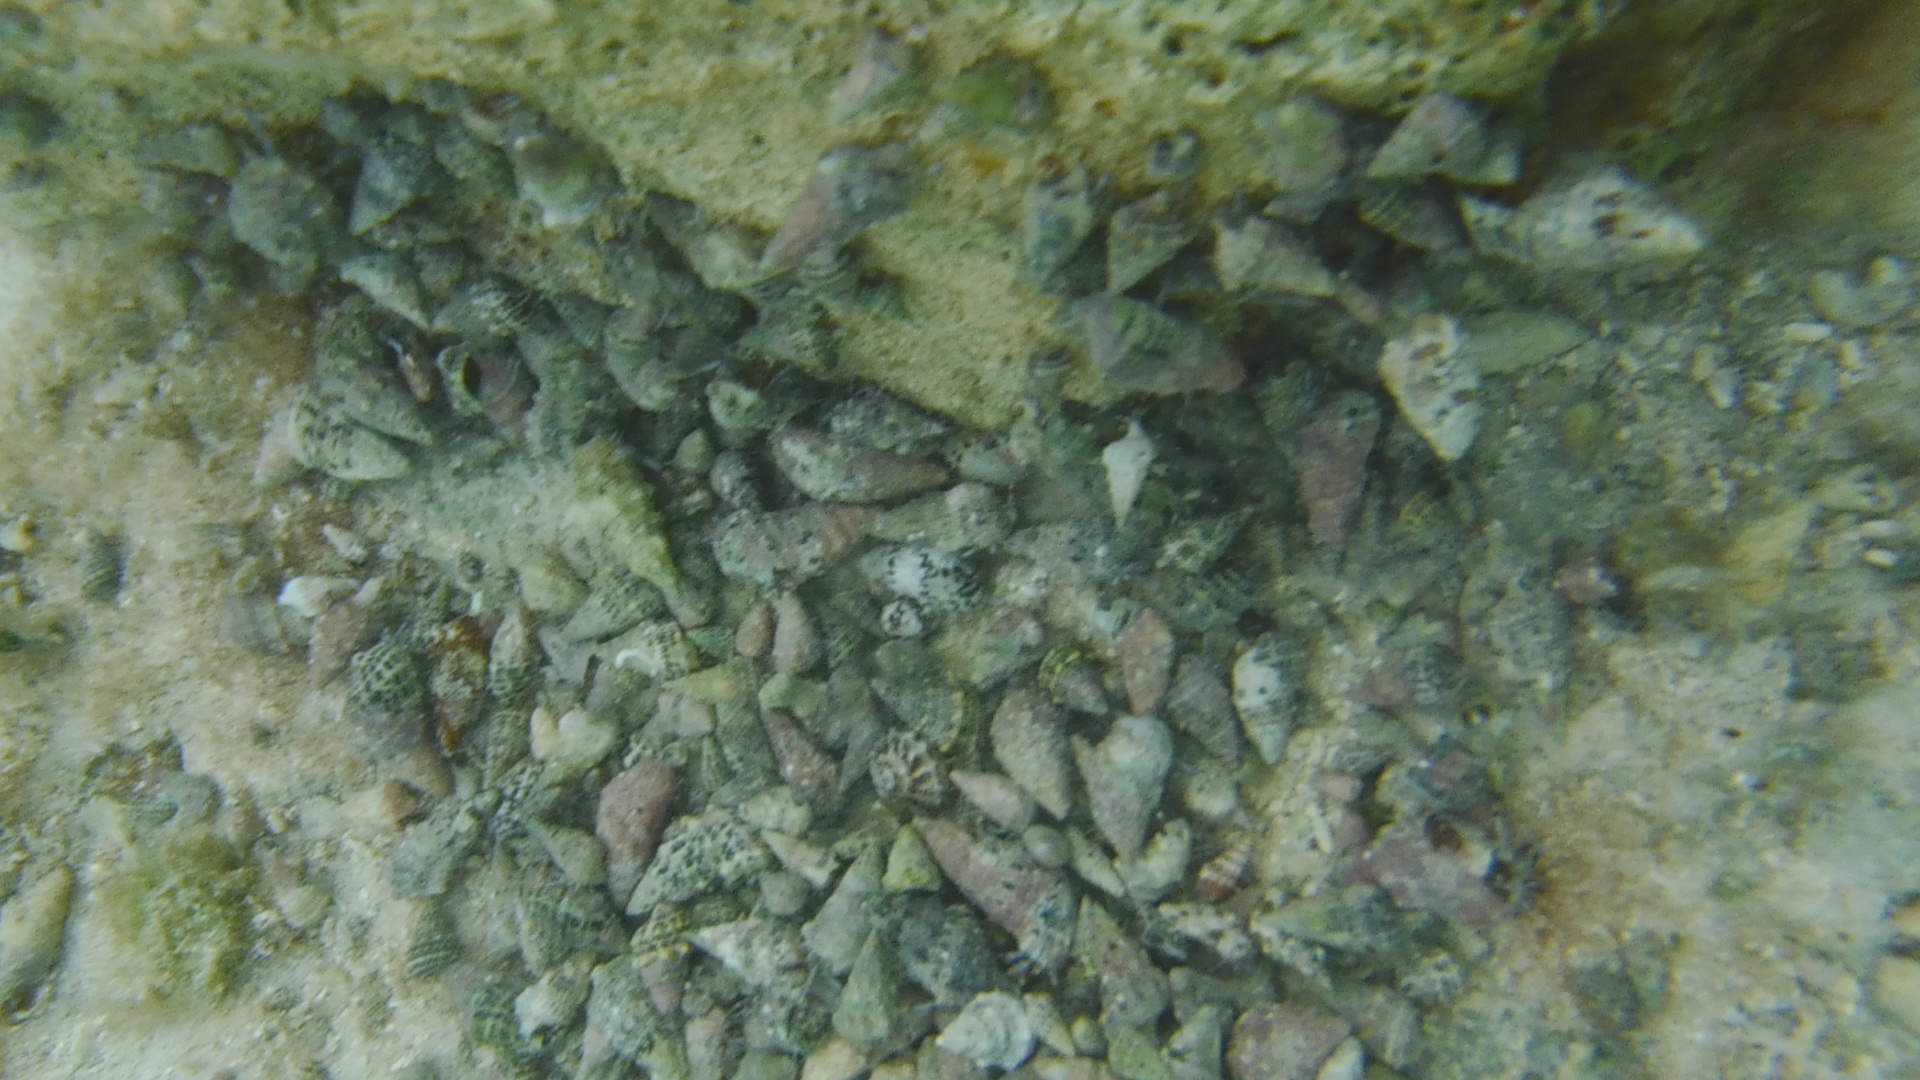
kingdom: Animalia
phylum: Mollusca
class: Gastropoda
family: Cerithiidae
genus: Cerithium
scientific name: Cerithium litteratum
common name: Stocky cerith
